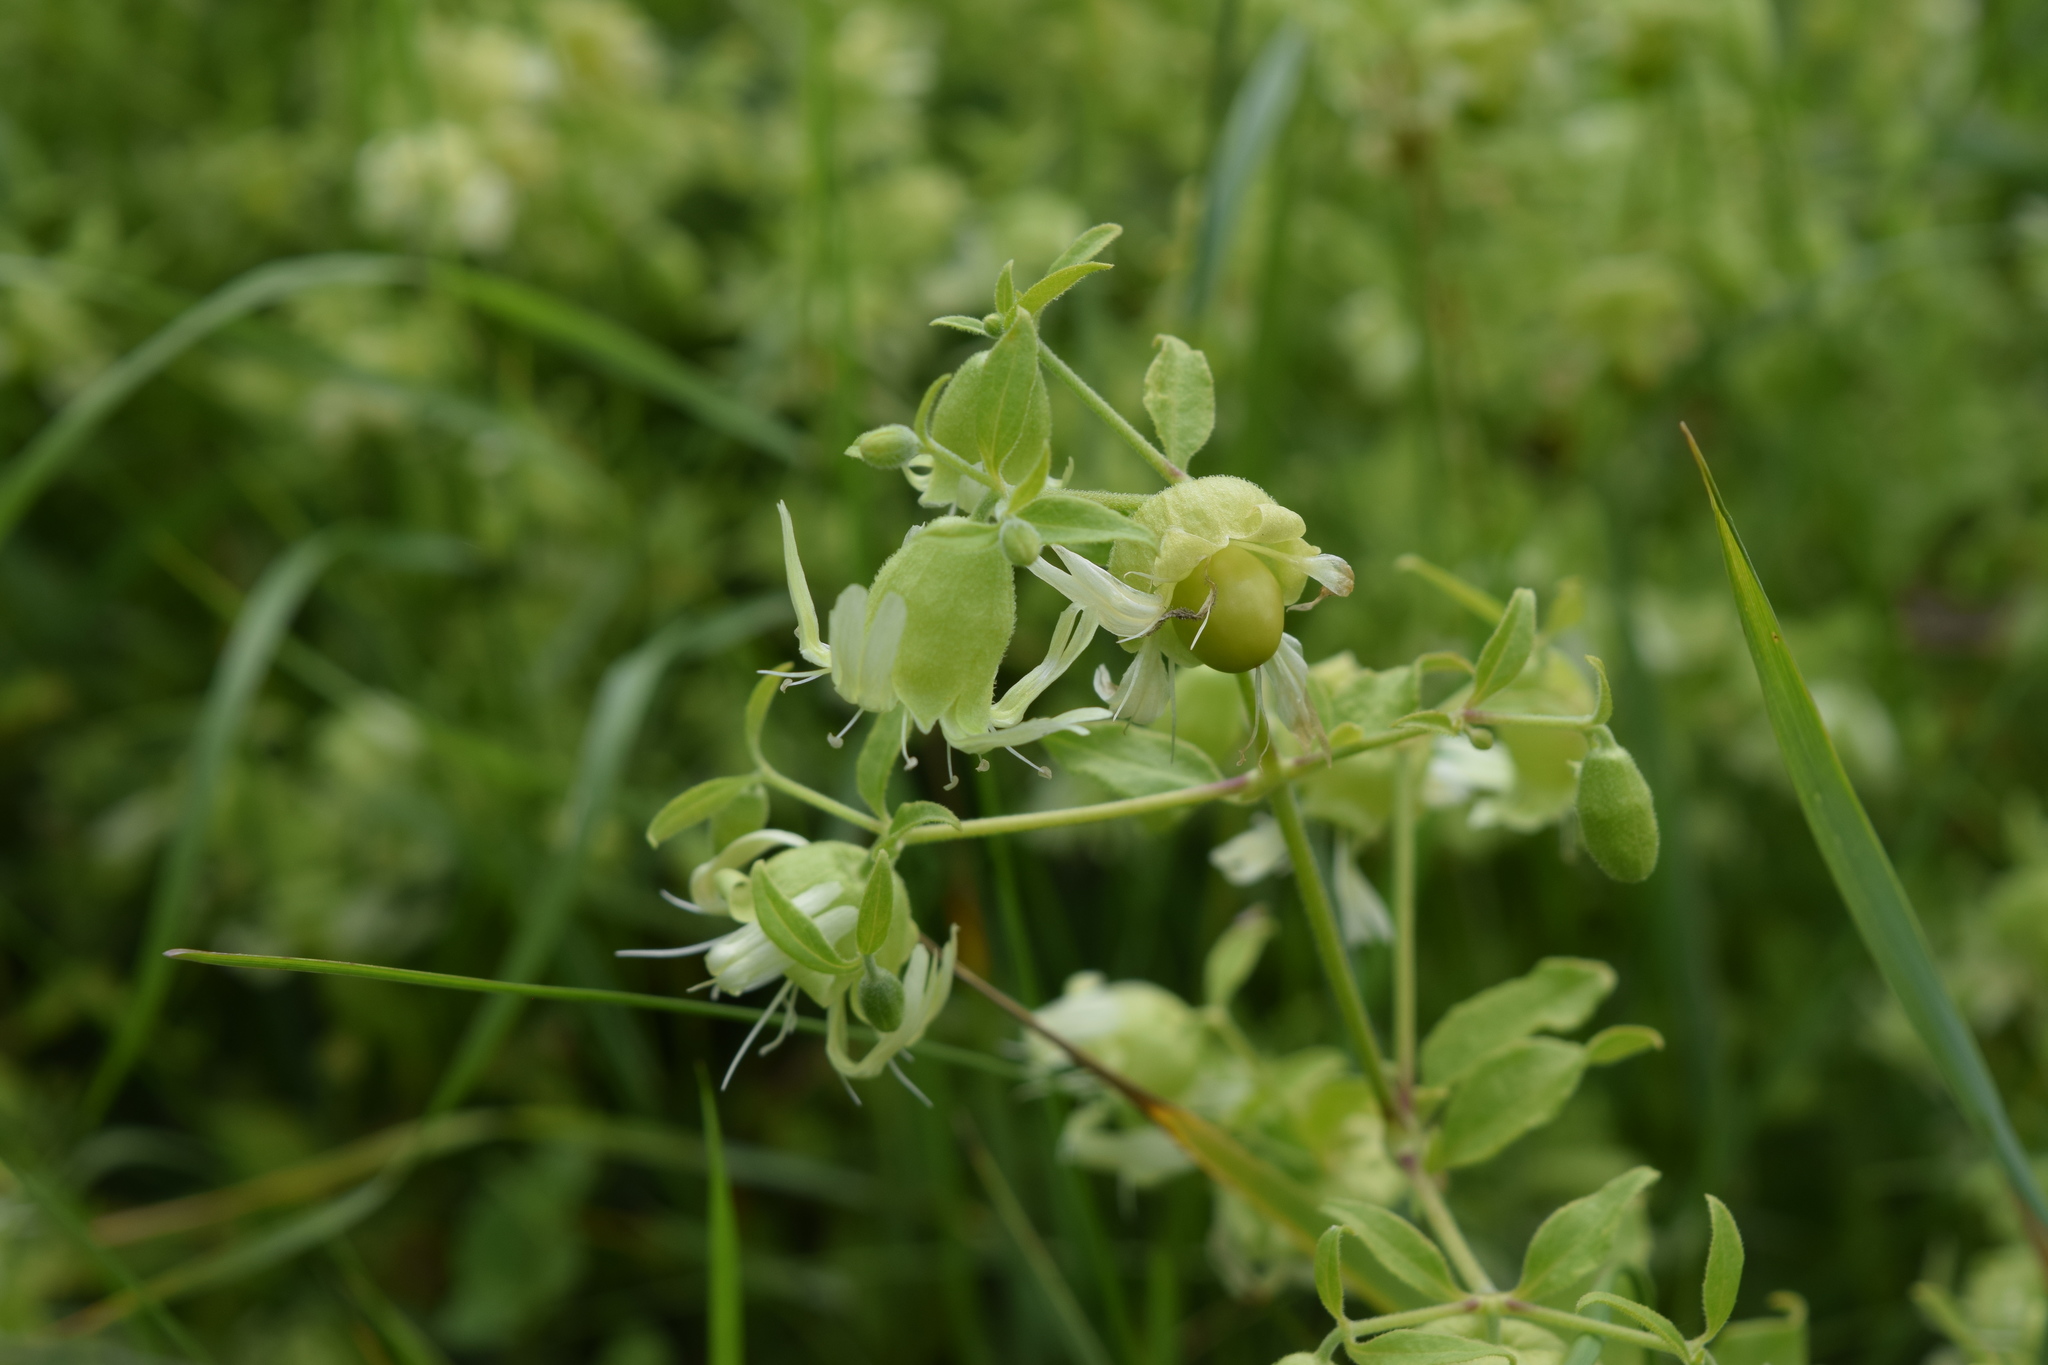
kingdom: Plantae
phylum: Tracheophyta
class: Magnoliopsida
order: Caryophyllales
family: Caryophyllaceae
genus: Silene
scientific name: Silene baccifera
